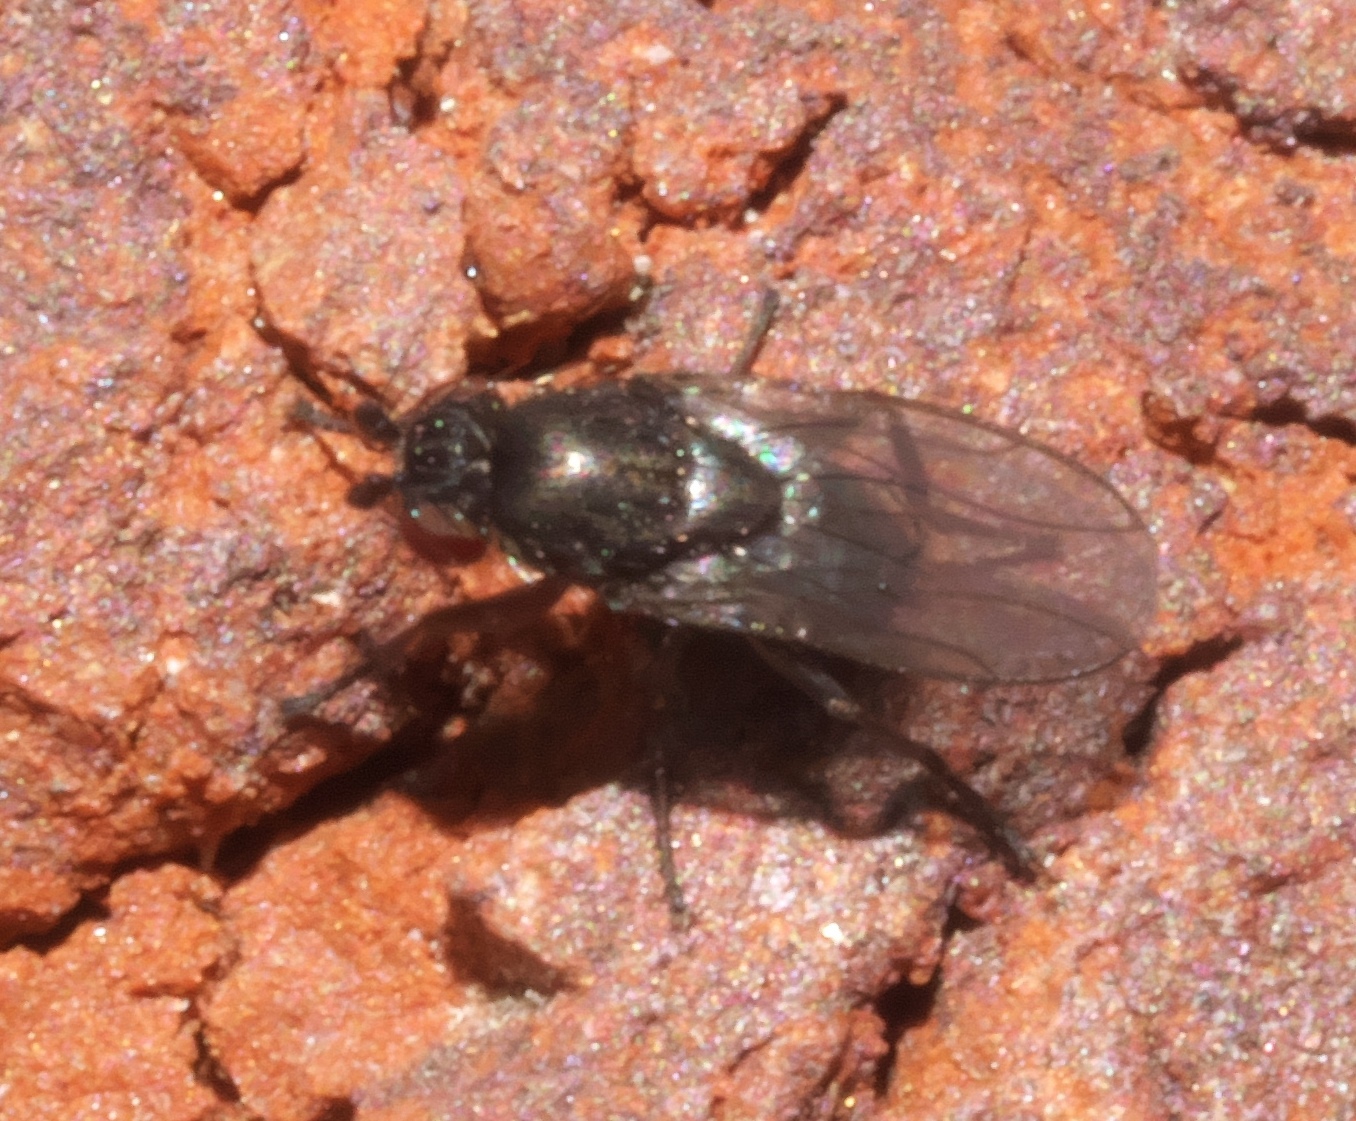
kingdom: Animalia
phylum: Arthropoda
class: Insecta
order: Diptera
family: Sphaeroceridae
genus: Leptocera
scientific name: Leptocera
